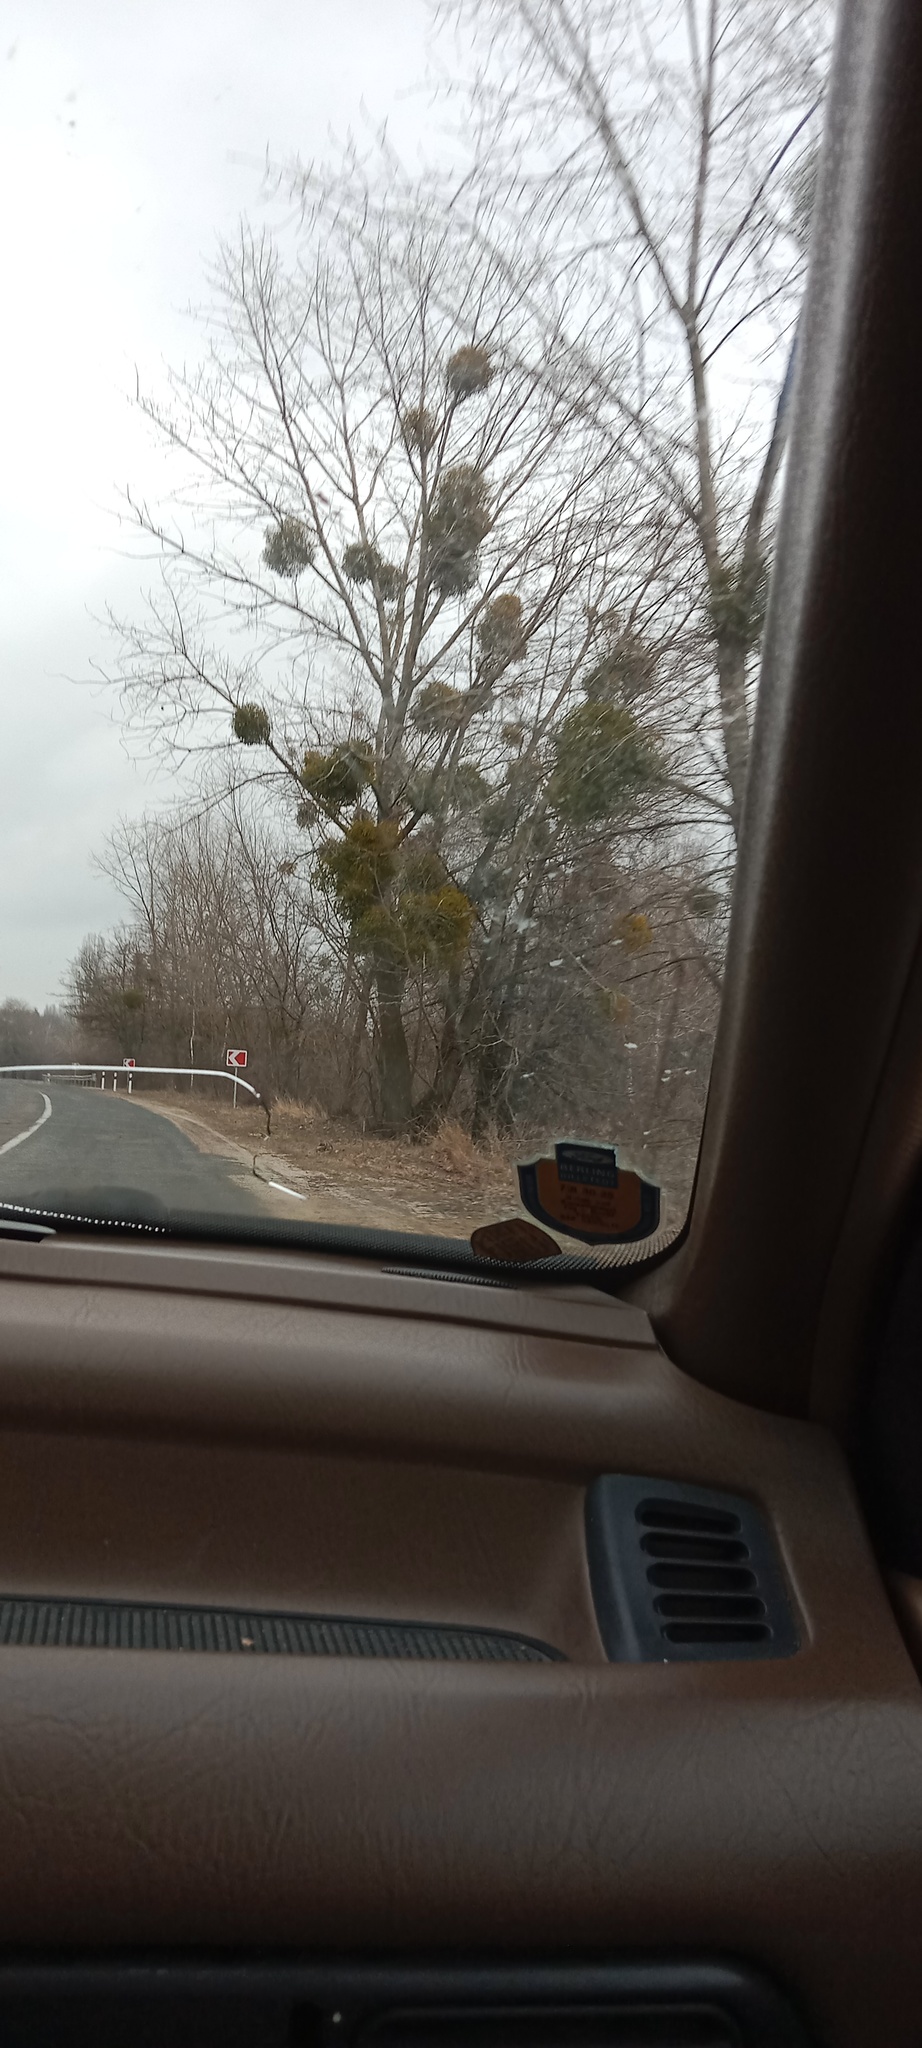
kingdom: Plantae
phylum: Tracheophyta
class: Magnoliopsida
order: Santalales
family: Viscaceae
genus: Viscum
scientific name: Viscum album
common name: Mistletoe
